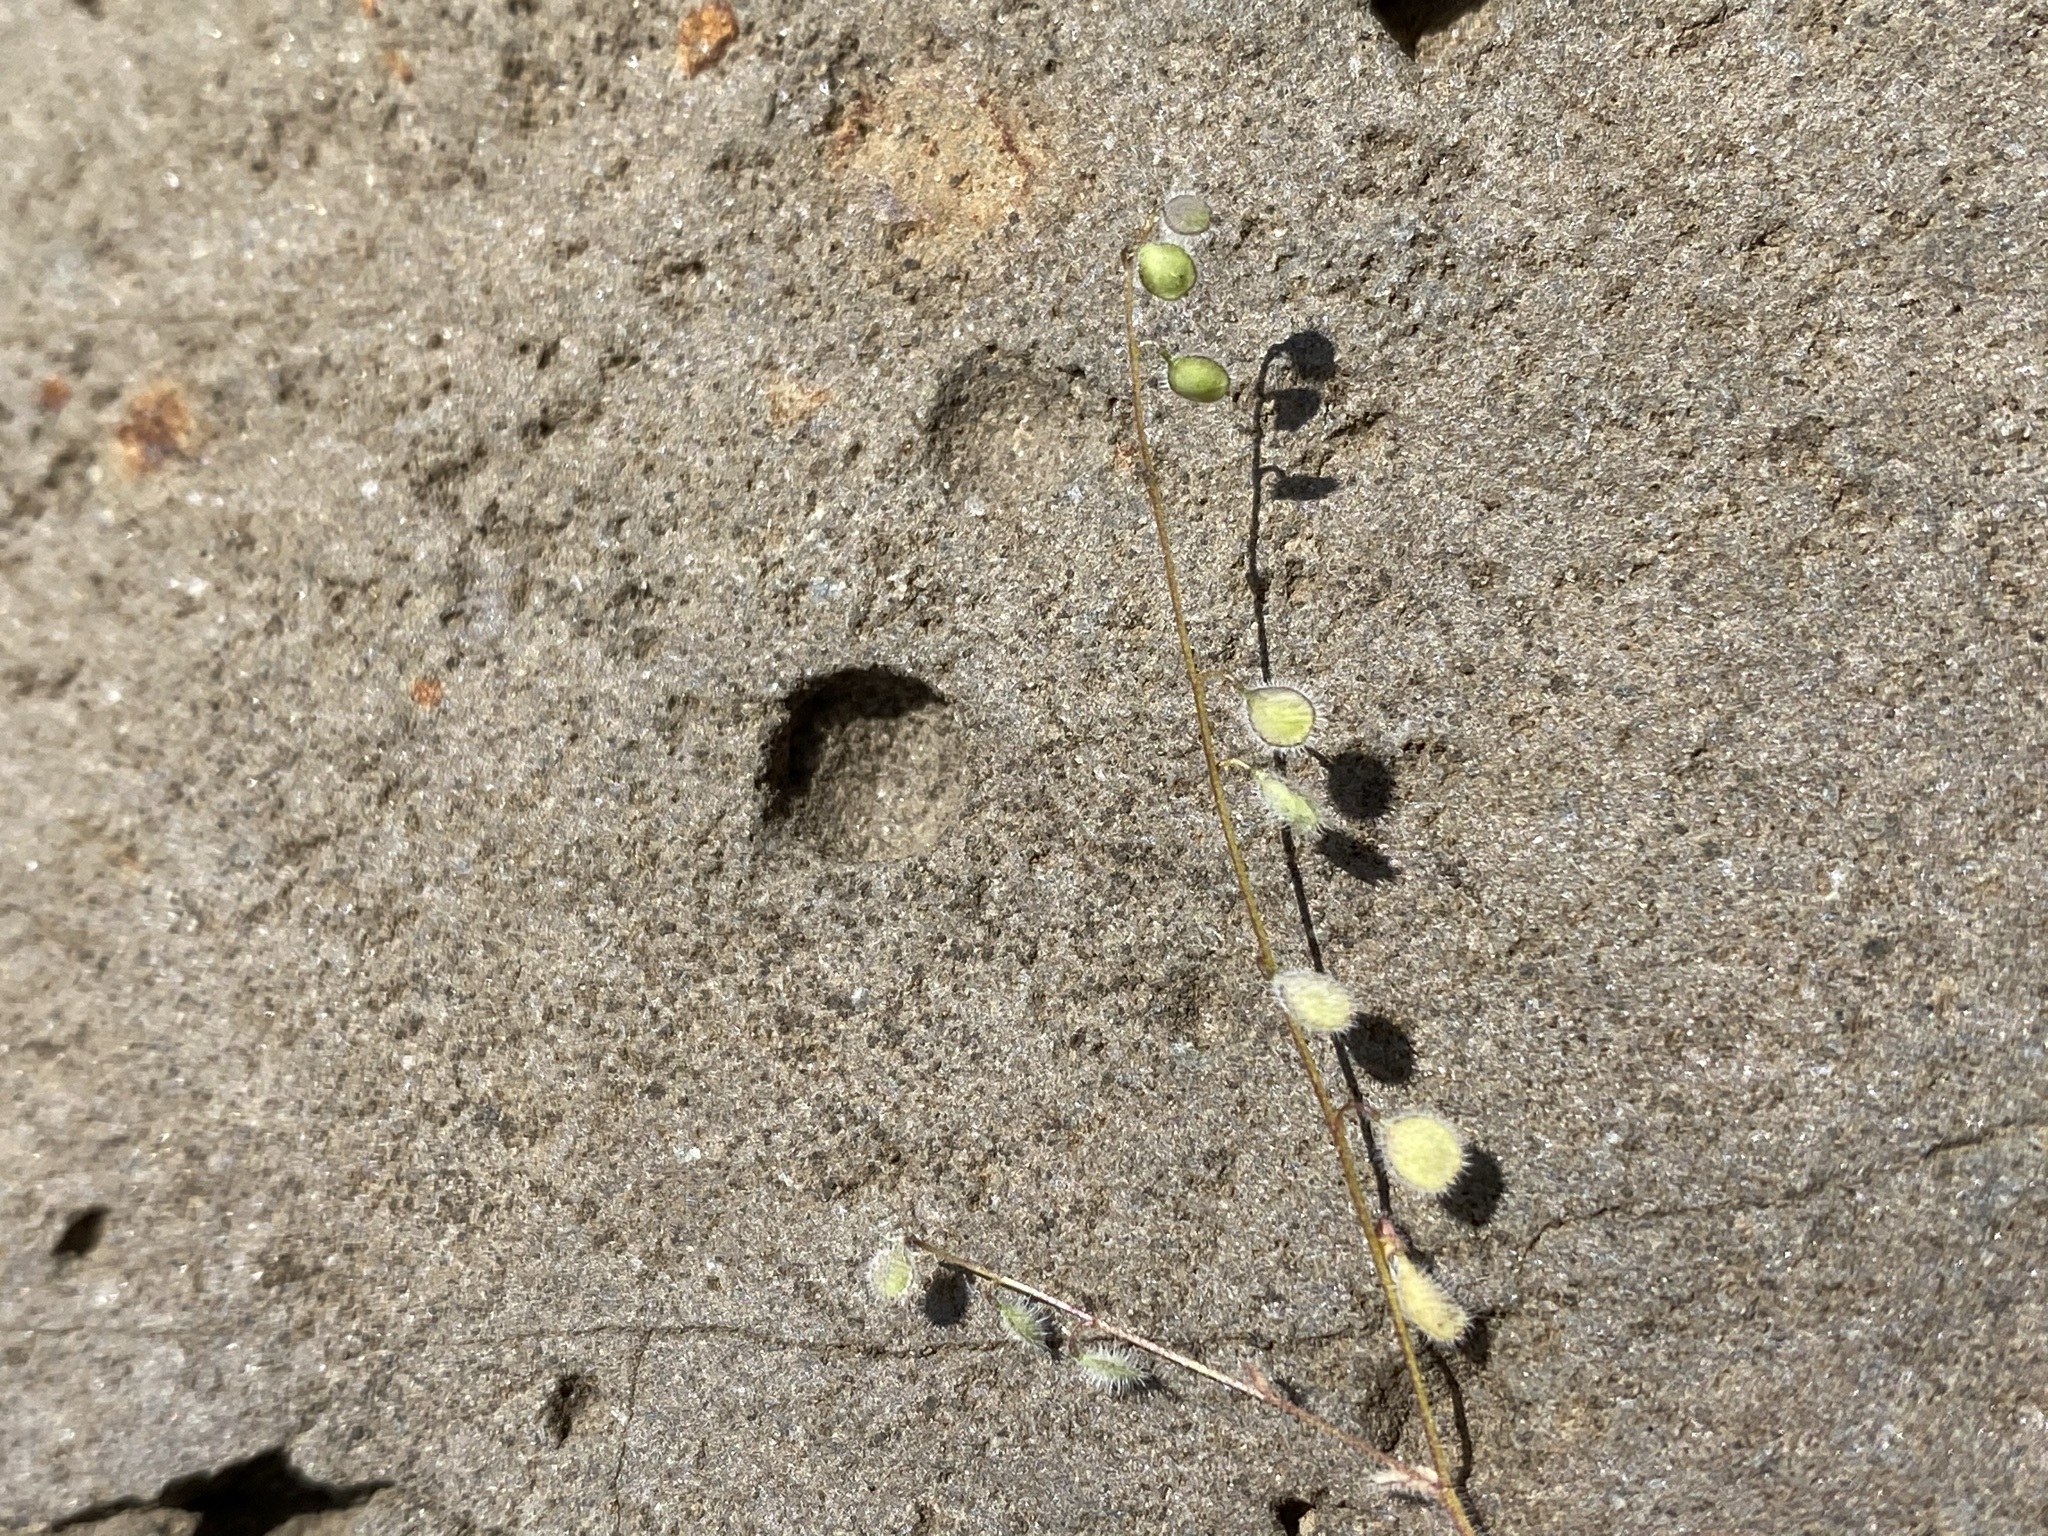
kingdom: Plantae
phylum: Tracheophyta
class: Magnoliopsida
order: Brassicales
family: Brassicaceae
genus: Athysanus
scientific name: Athysanus pusillus
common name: Common sandweed
